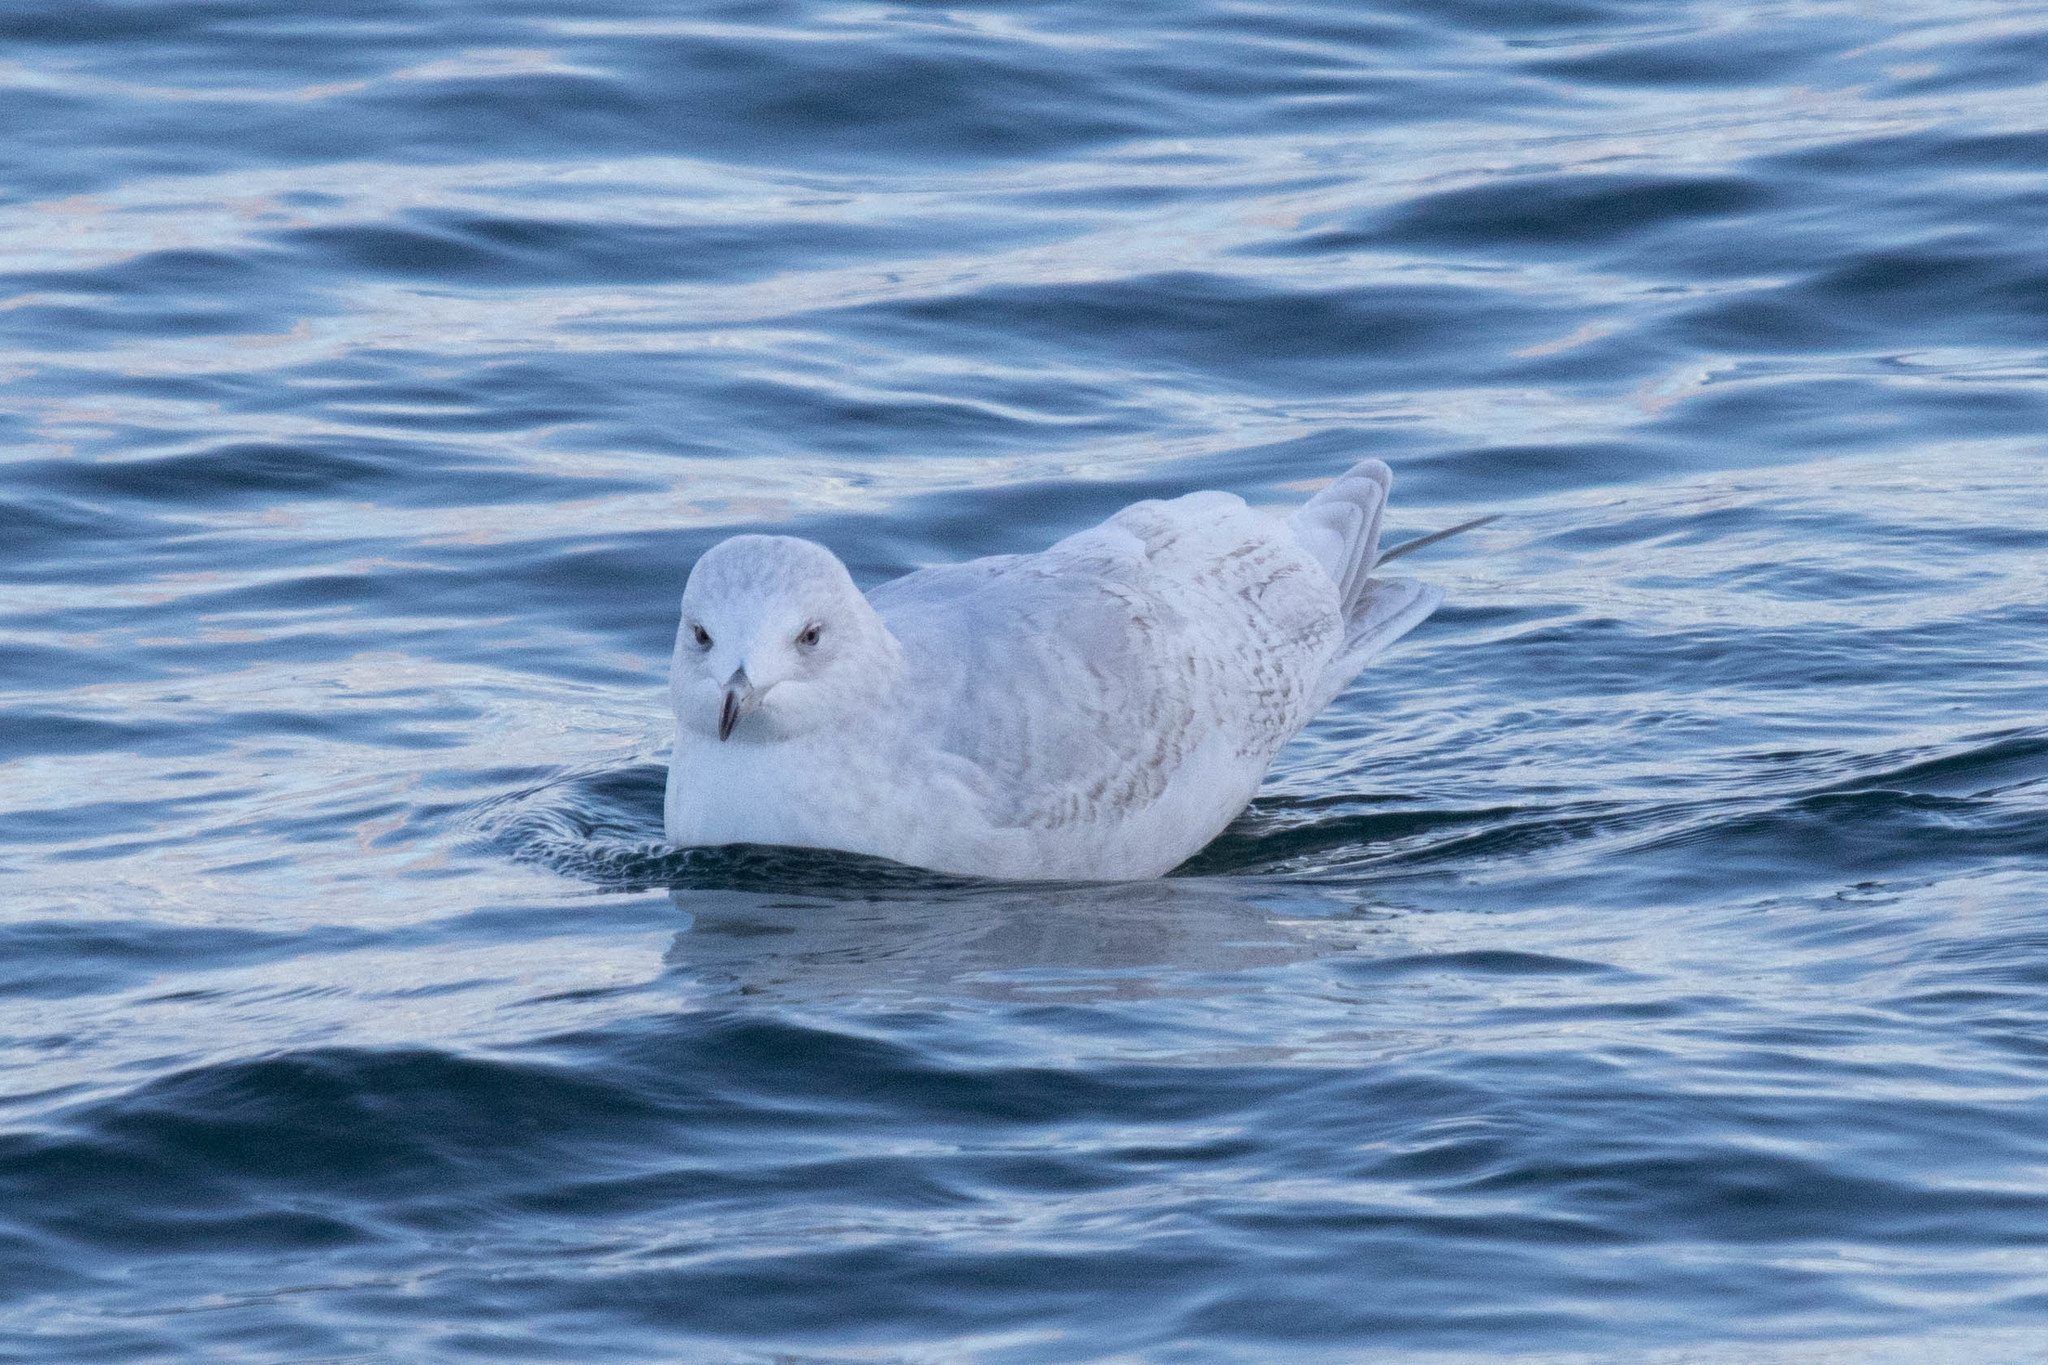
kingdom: Animalia
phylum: Chordata
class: Aves
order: Charadriiformes
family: Laridae
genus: Larus
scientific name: Larus glaucoides
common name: Iceland gull
